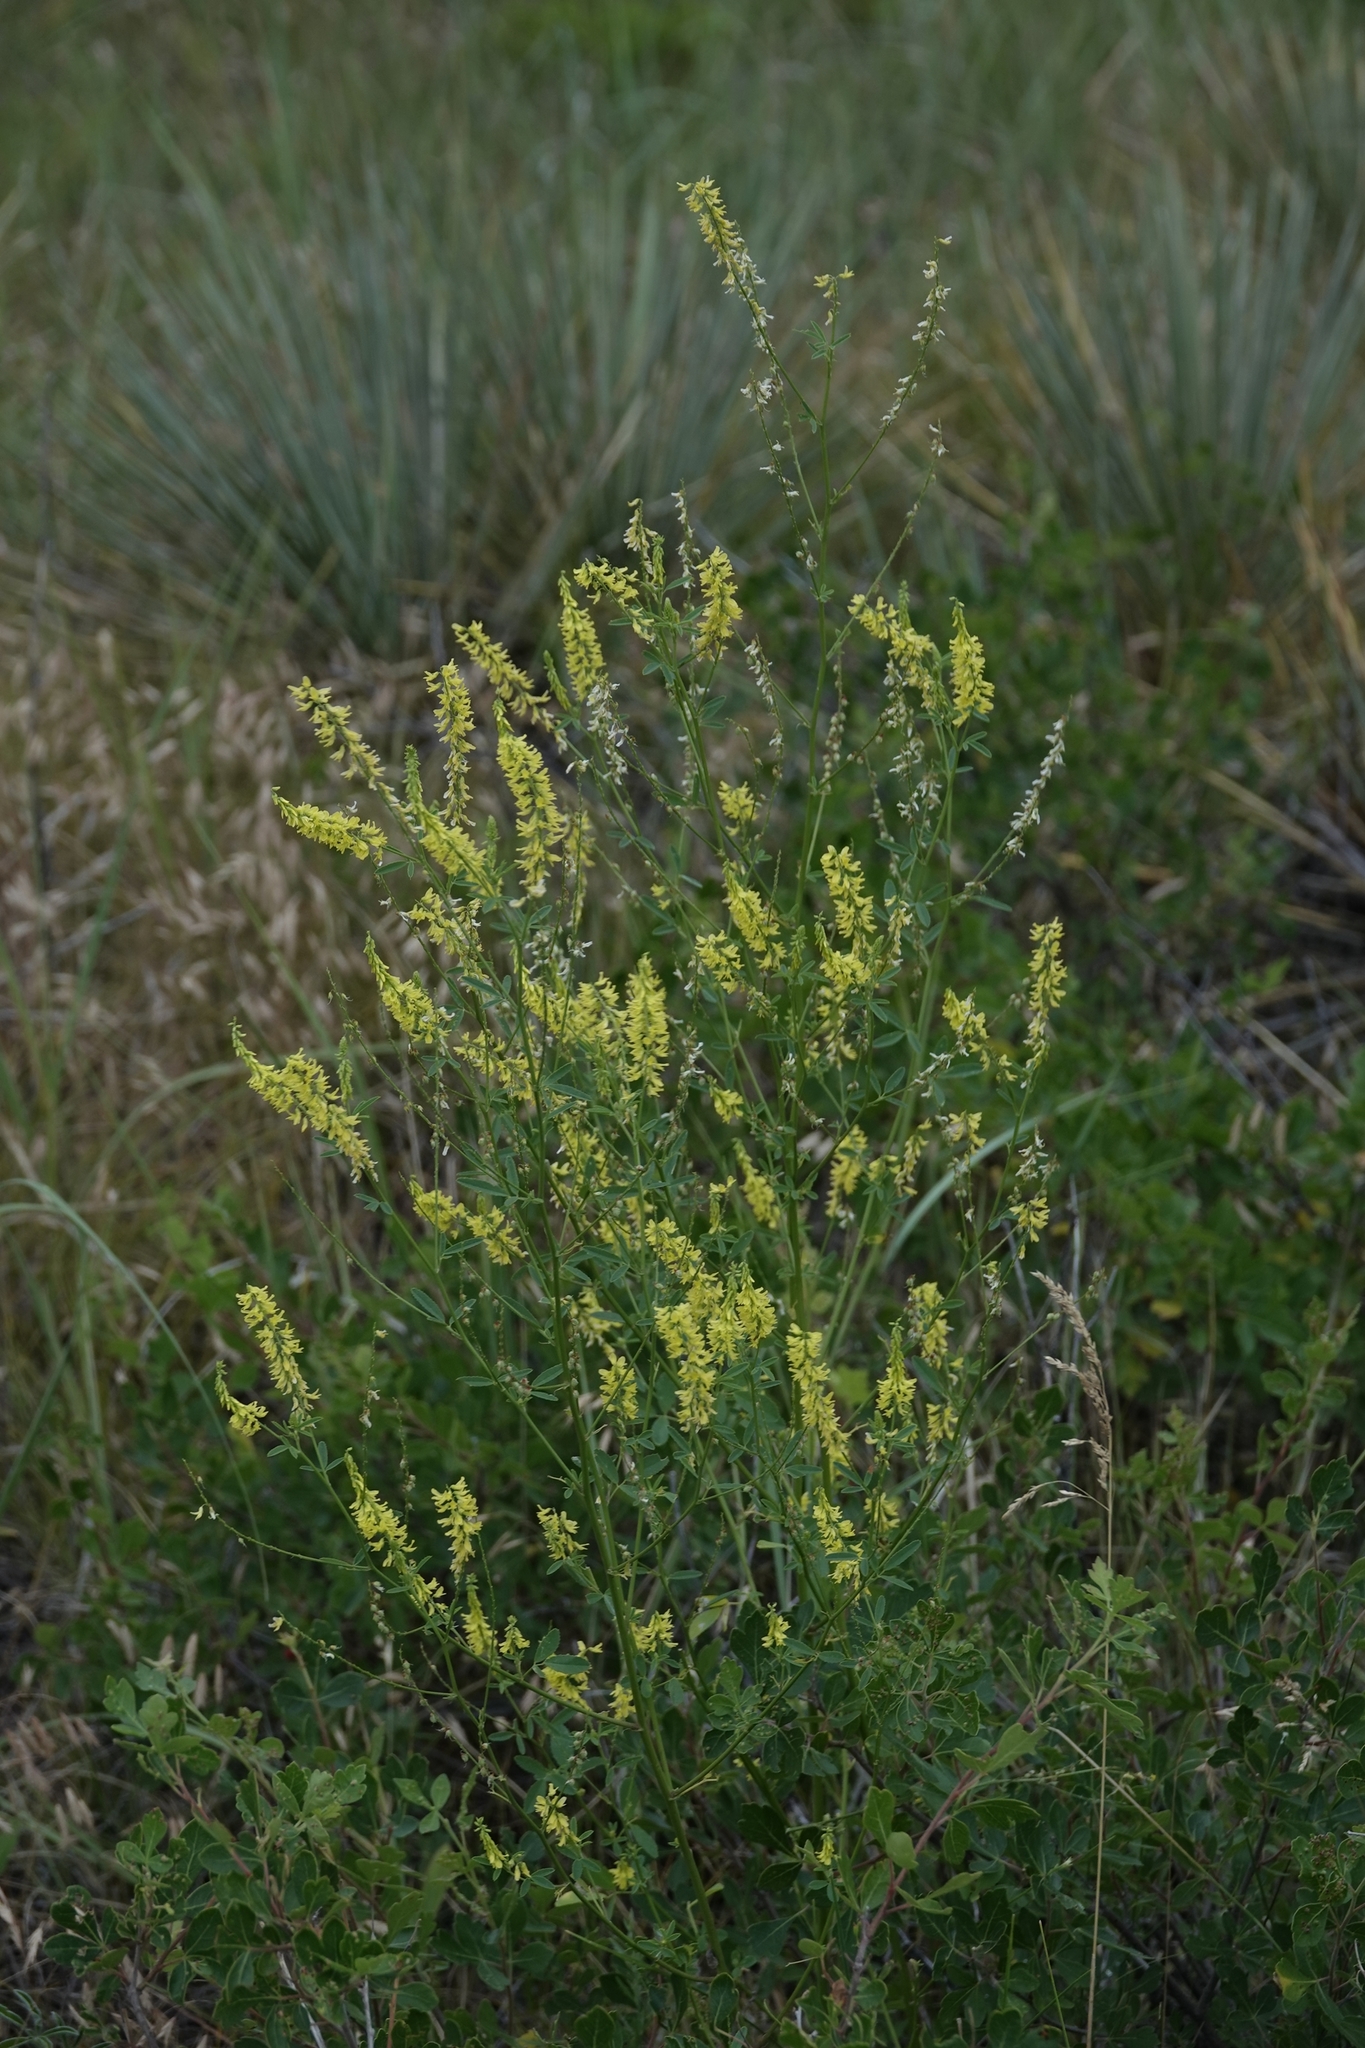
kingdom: Plantae
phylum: Tracheophyta
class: Magnoliopsida
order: Fabales
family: Fabaceae
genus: Melilotus
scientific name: Melilotus officinalis
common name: Sweetclover
